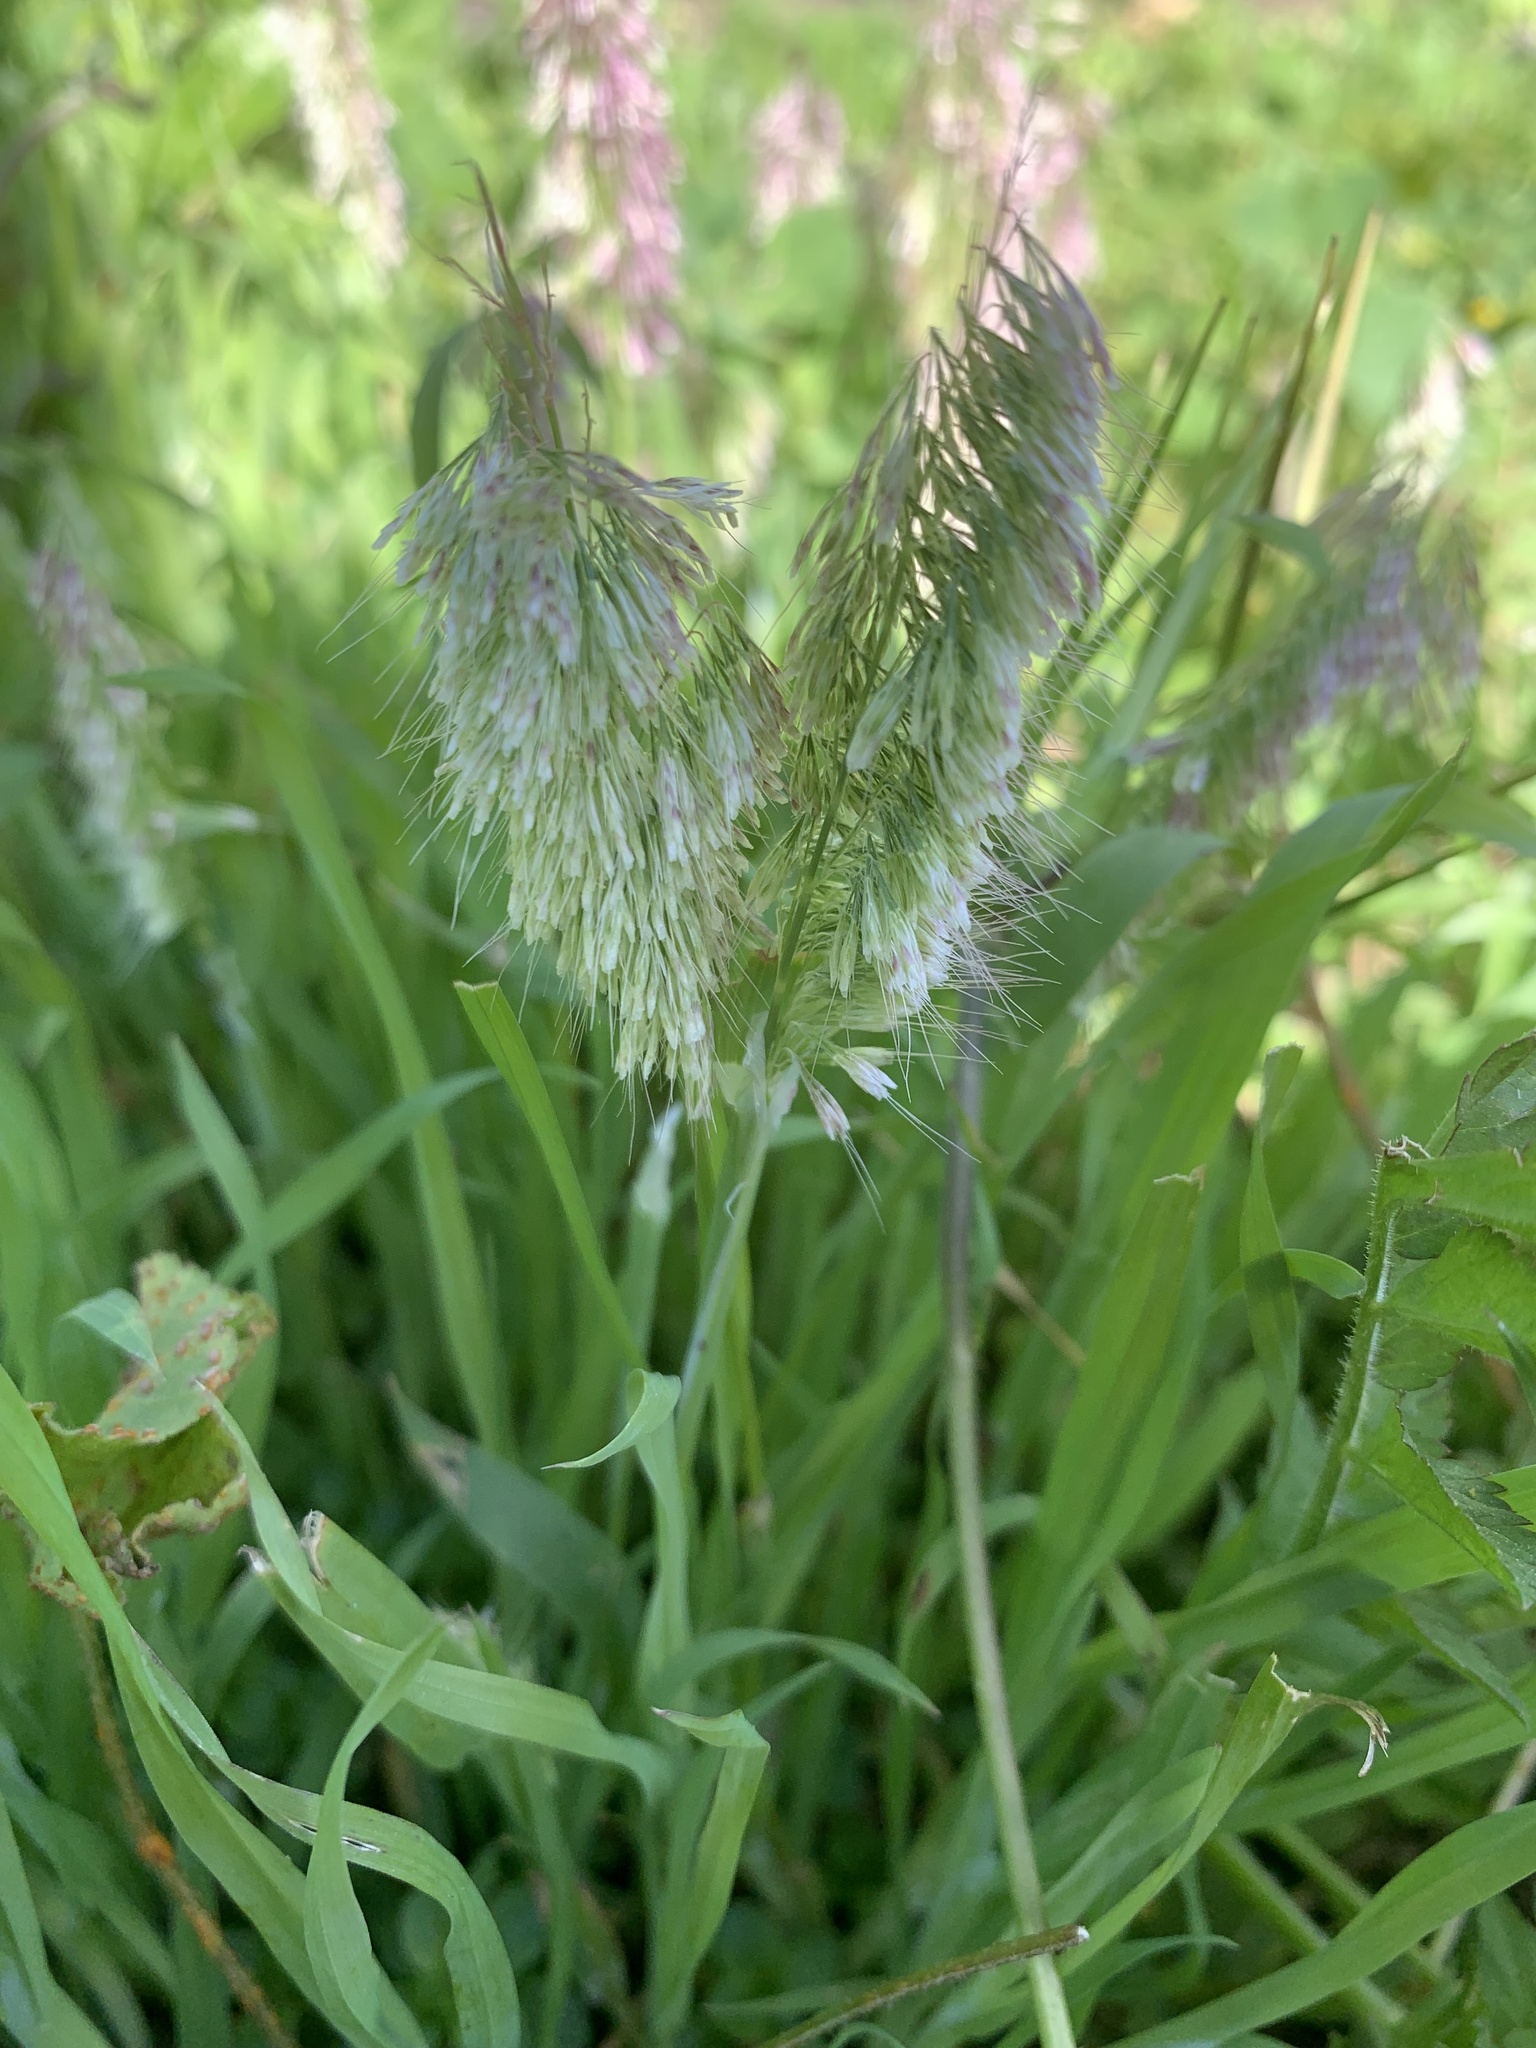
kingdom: Plantae
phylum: Tracheophyta
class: Liliopsida
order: Poales
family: Poaceae
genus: Lamarckia
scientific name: Lamarckia aurea
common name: Golden dog's-tail
